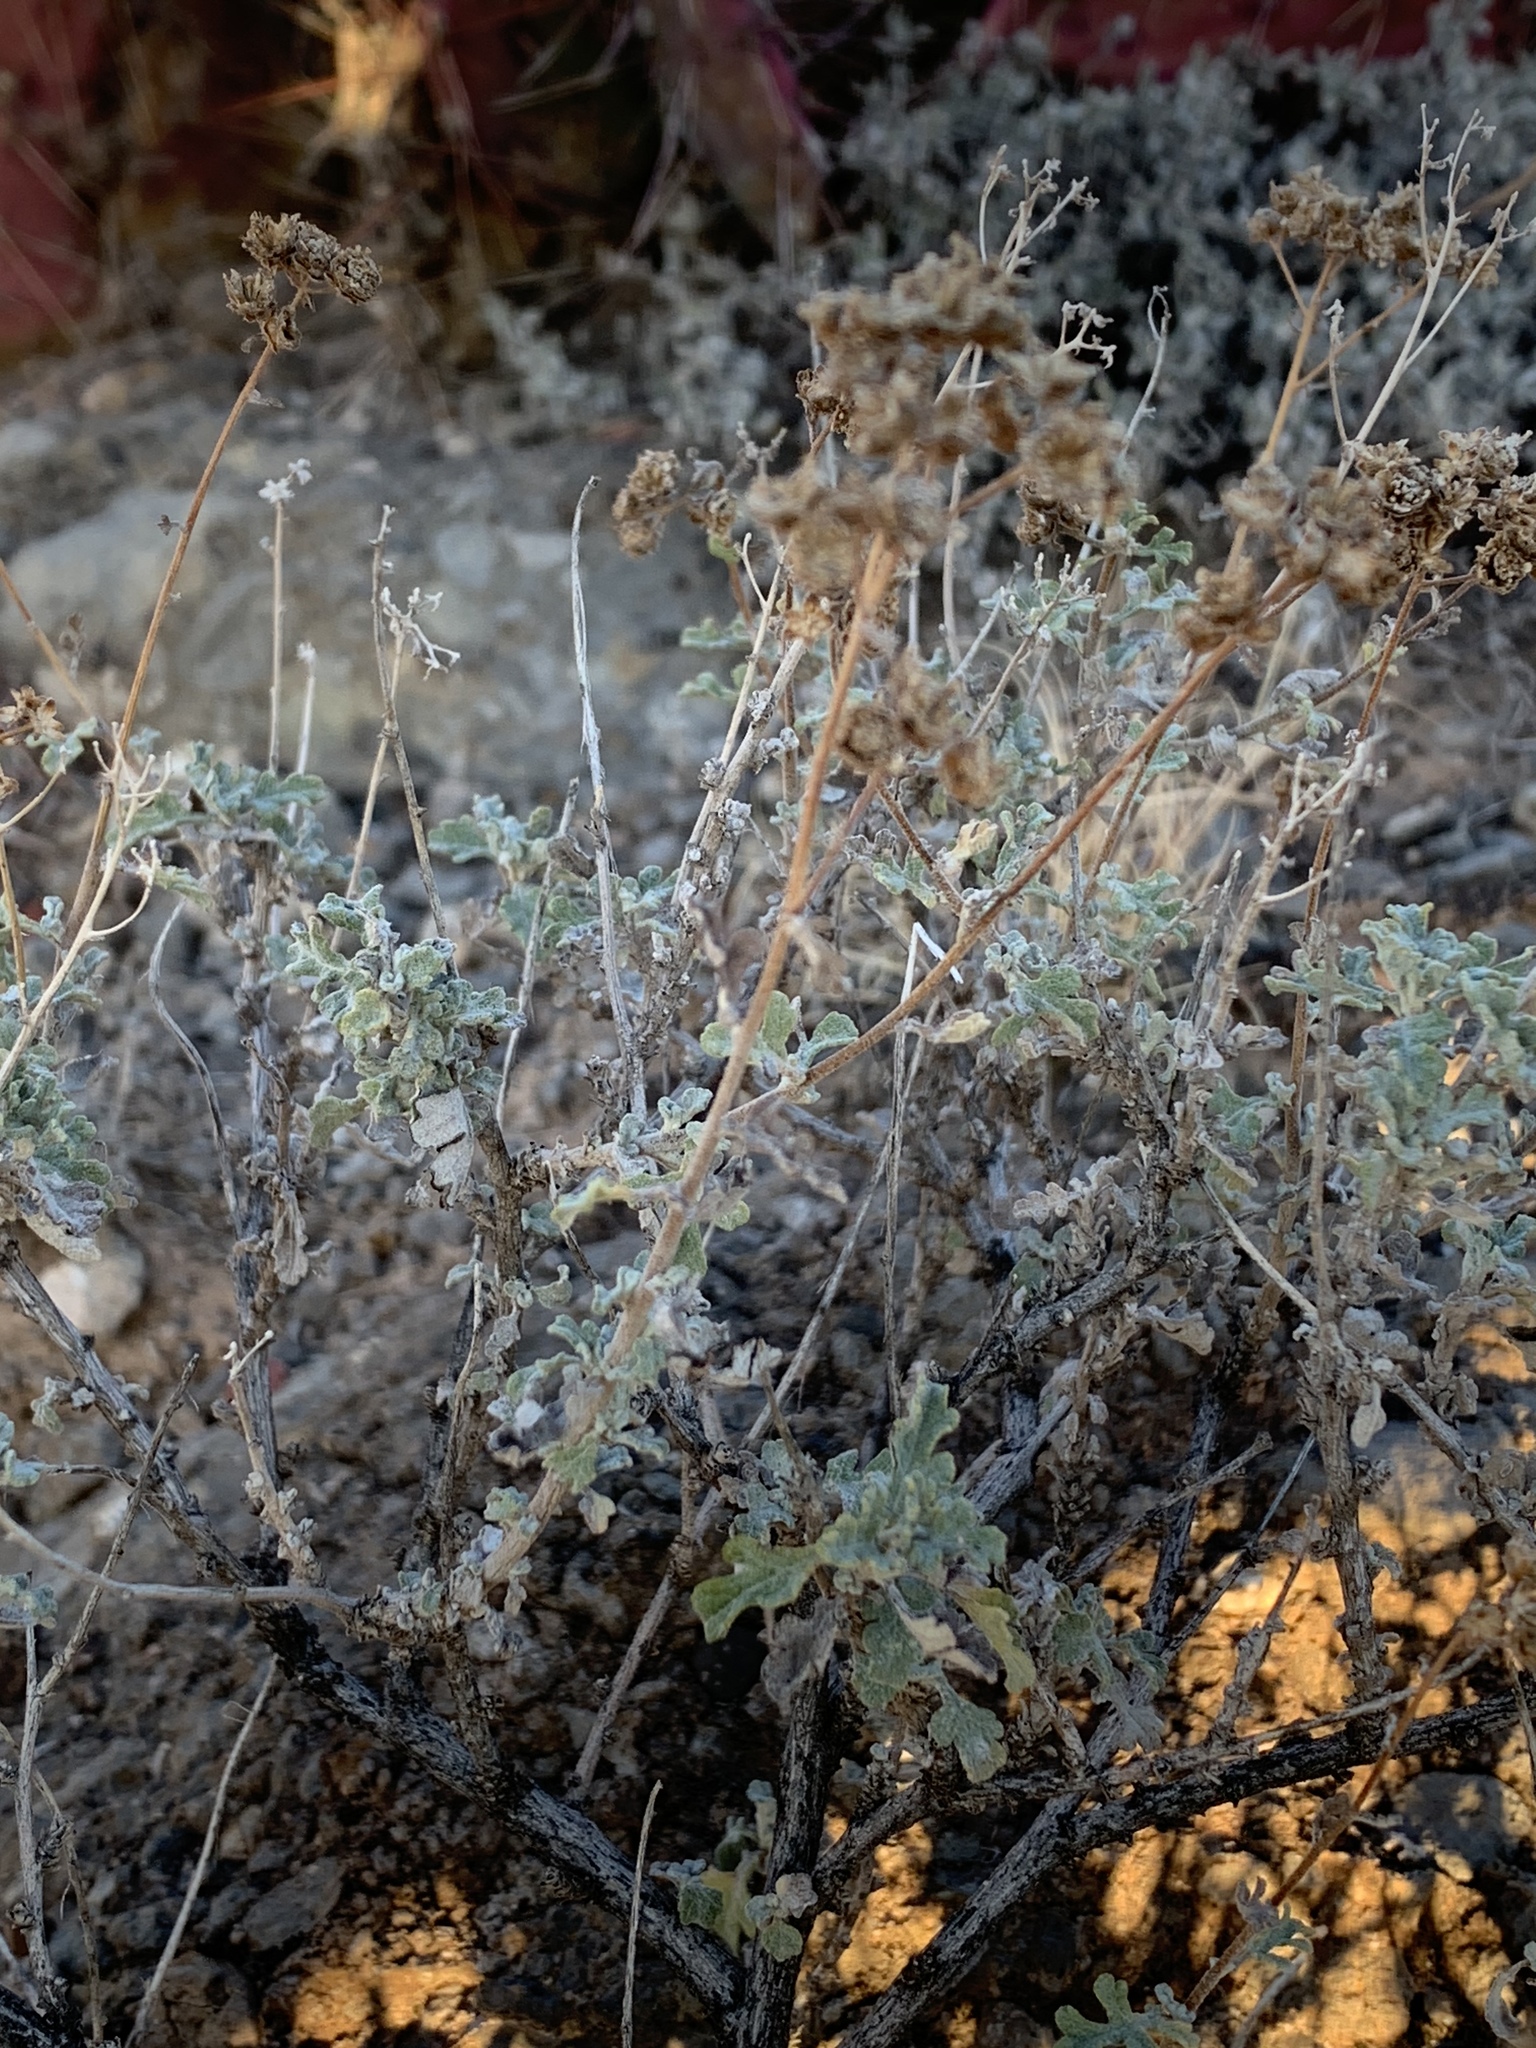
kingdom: Plantae
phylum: Tracheophyta
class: Magnoliopsida
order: Asterales
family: Asteraceae
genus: Parthenium
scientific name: Parthenium incanum
